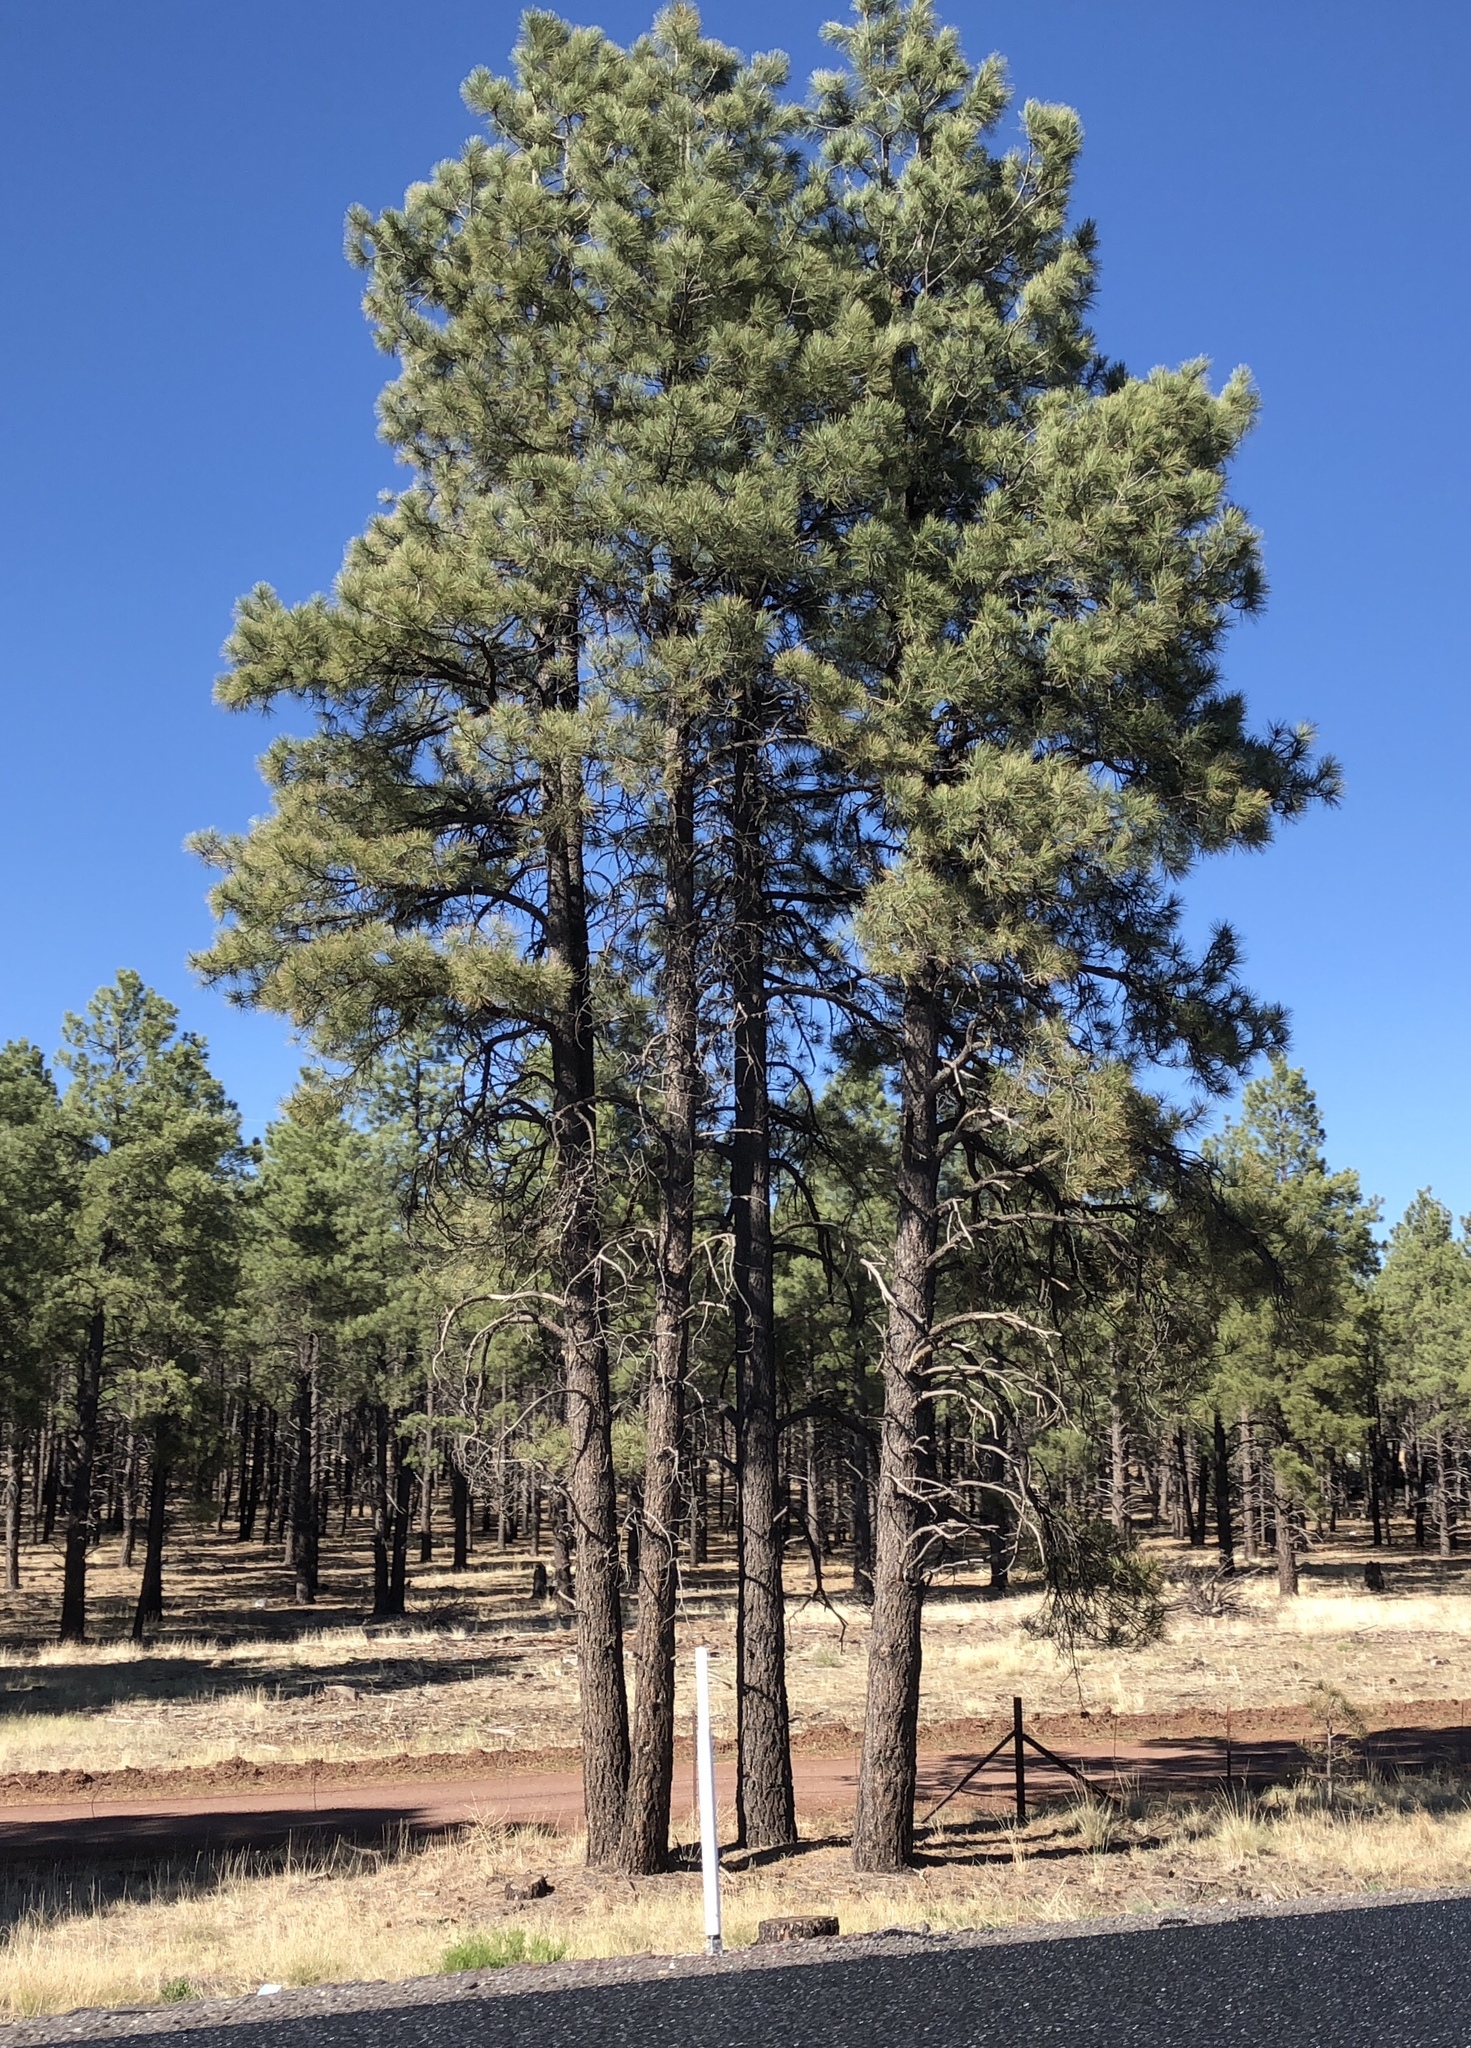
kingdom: Plantae
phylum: Tracheophyta
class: Pinopsida
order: Pinales
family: Pinaceae
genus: Pinus
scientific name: Pinus ponderosa
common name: Western yellow-pine
